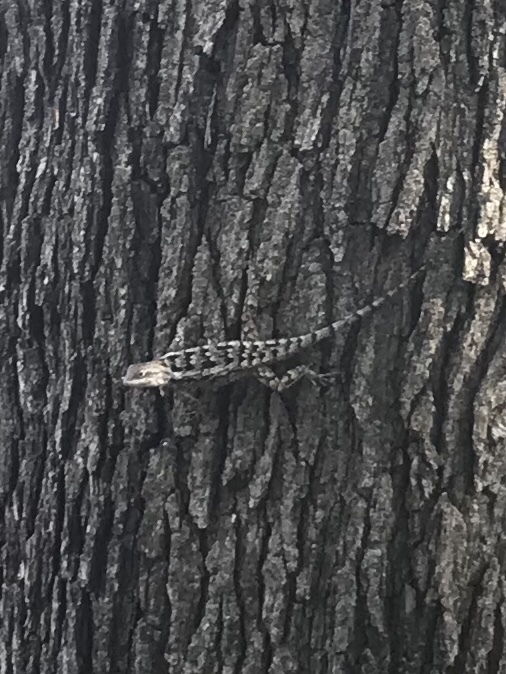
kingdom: Animalia
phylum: Chordata
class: Squamata
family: Phrynosomatidae
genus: Sceloporus
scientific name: Sceloporus olivaceus
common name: Texas spiny lizard
